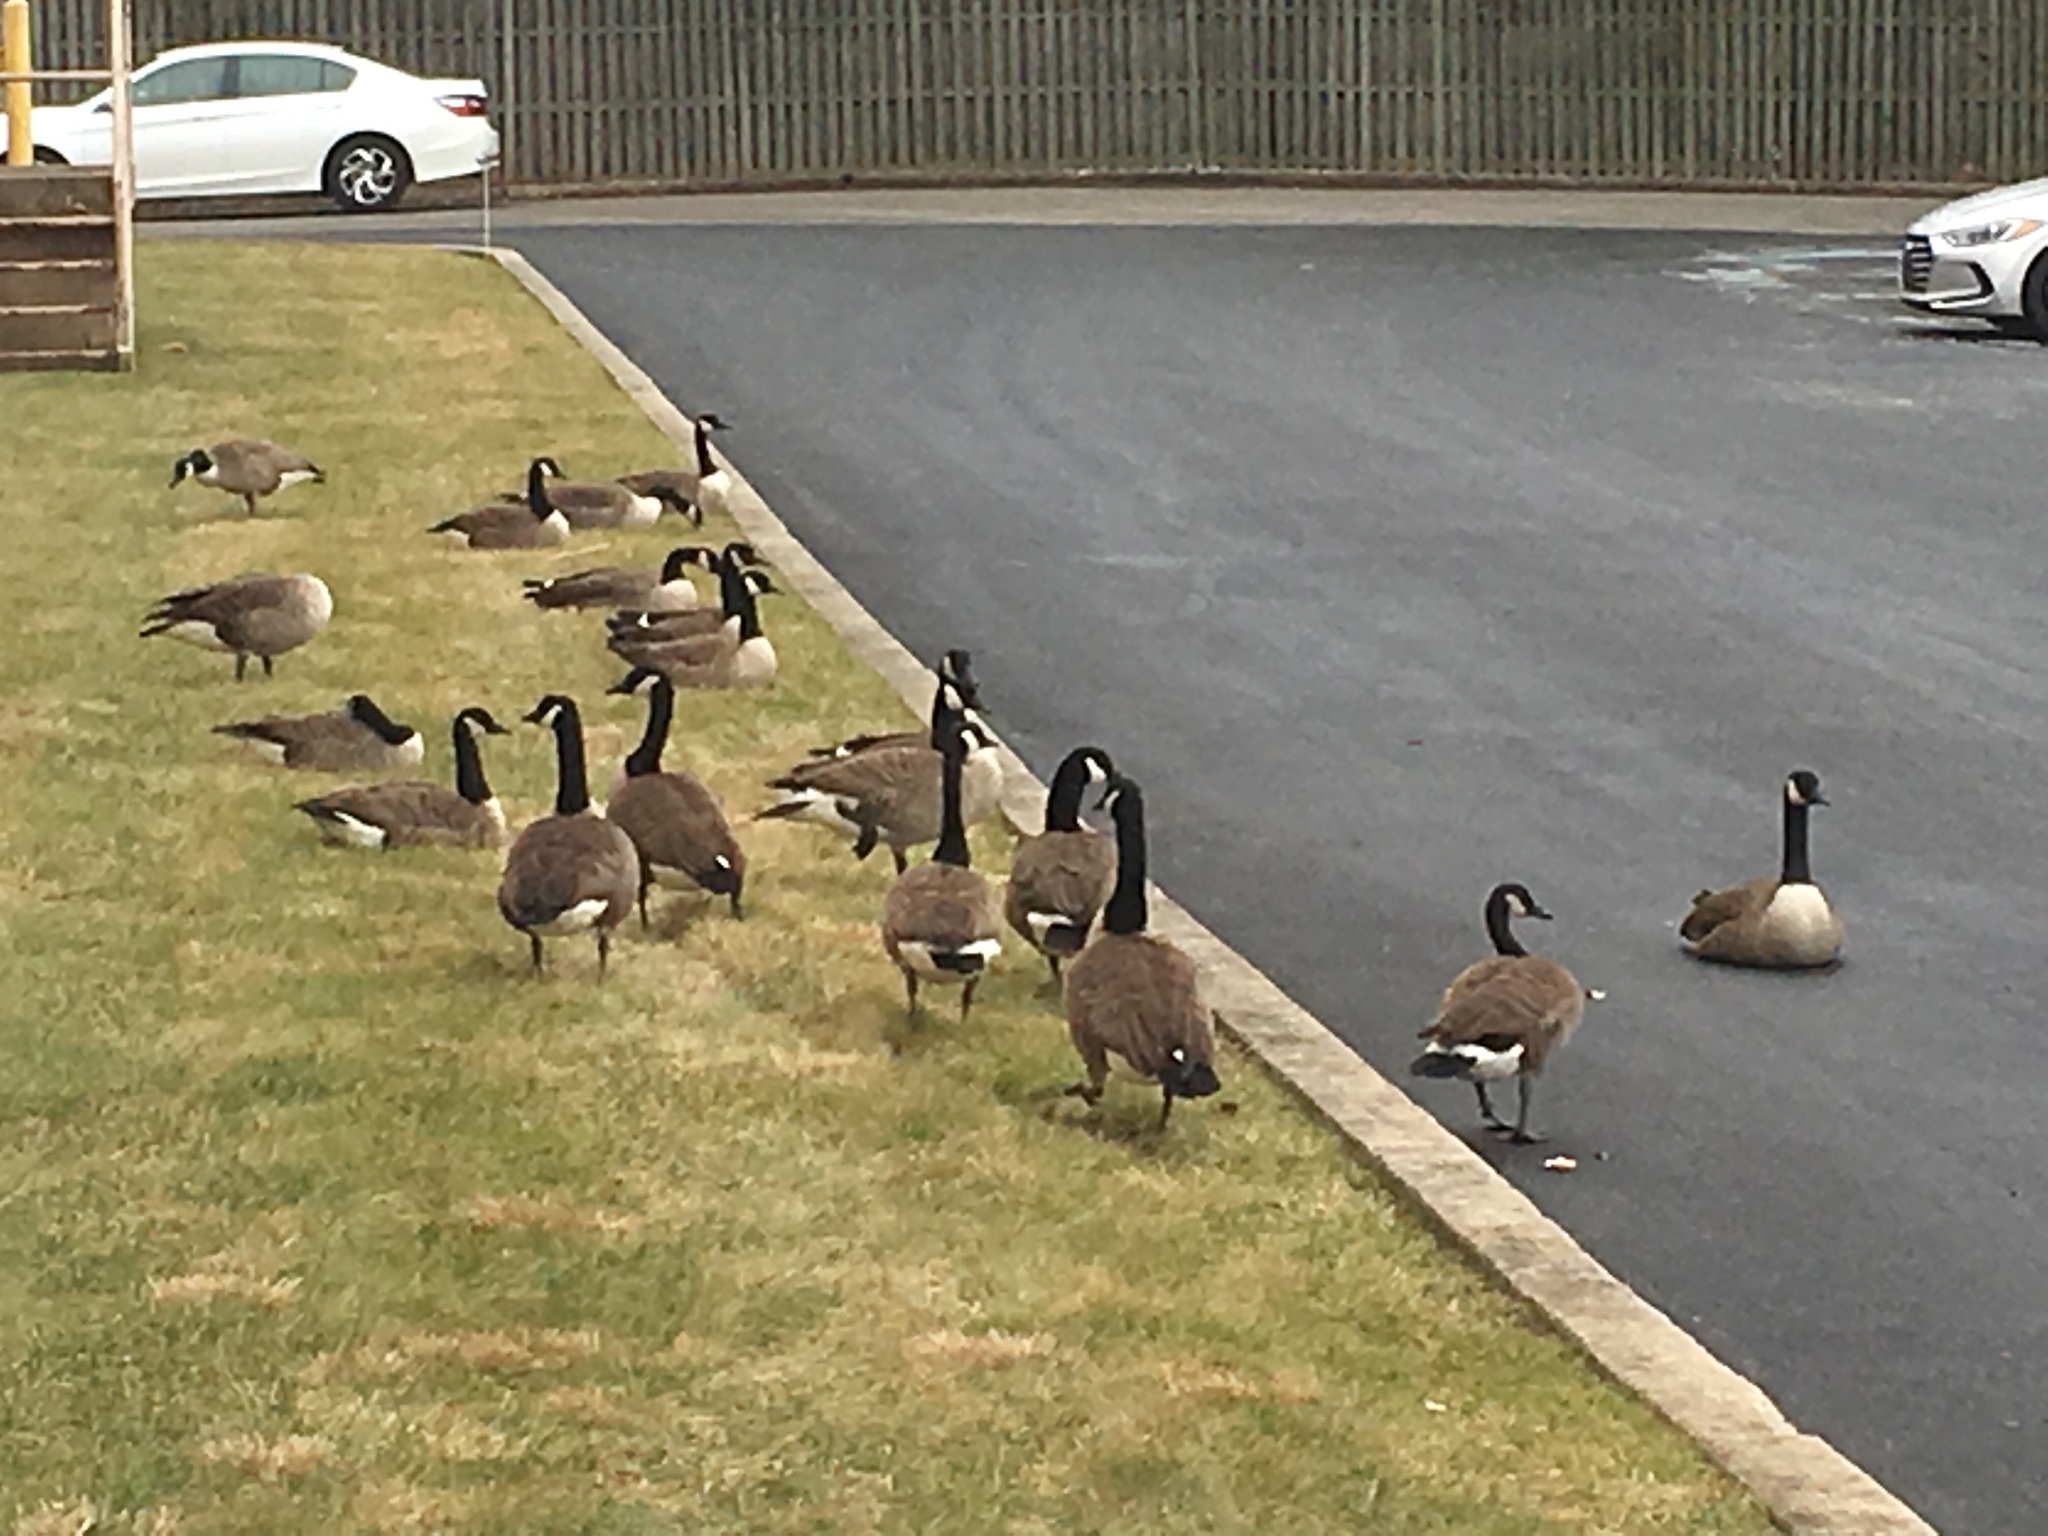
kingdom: Animalia
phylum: Chordata
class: Aves
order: Anseriformes
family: Anatidae
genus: Branta
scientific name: Branta canadensis
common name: Canada goose
